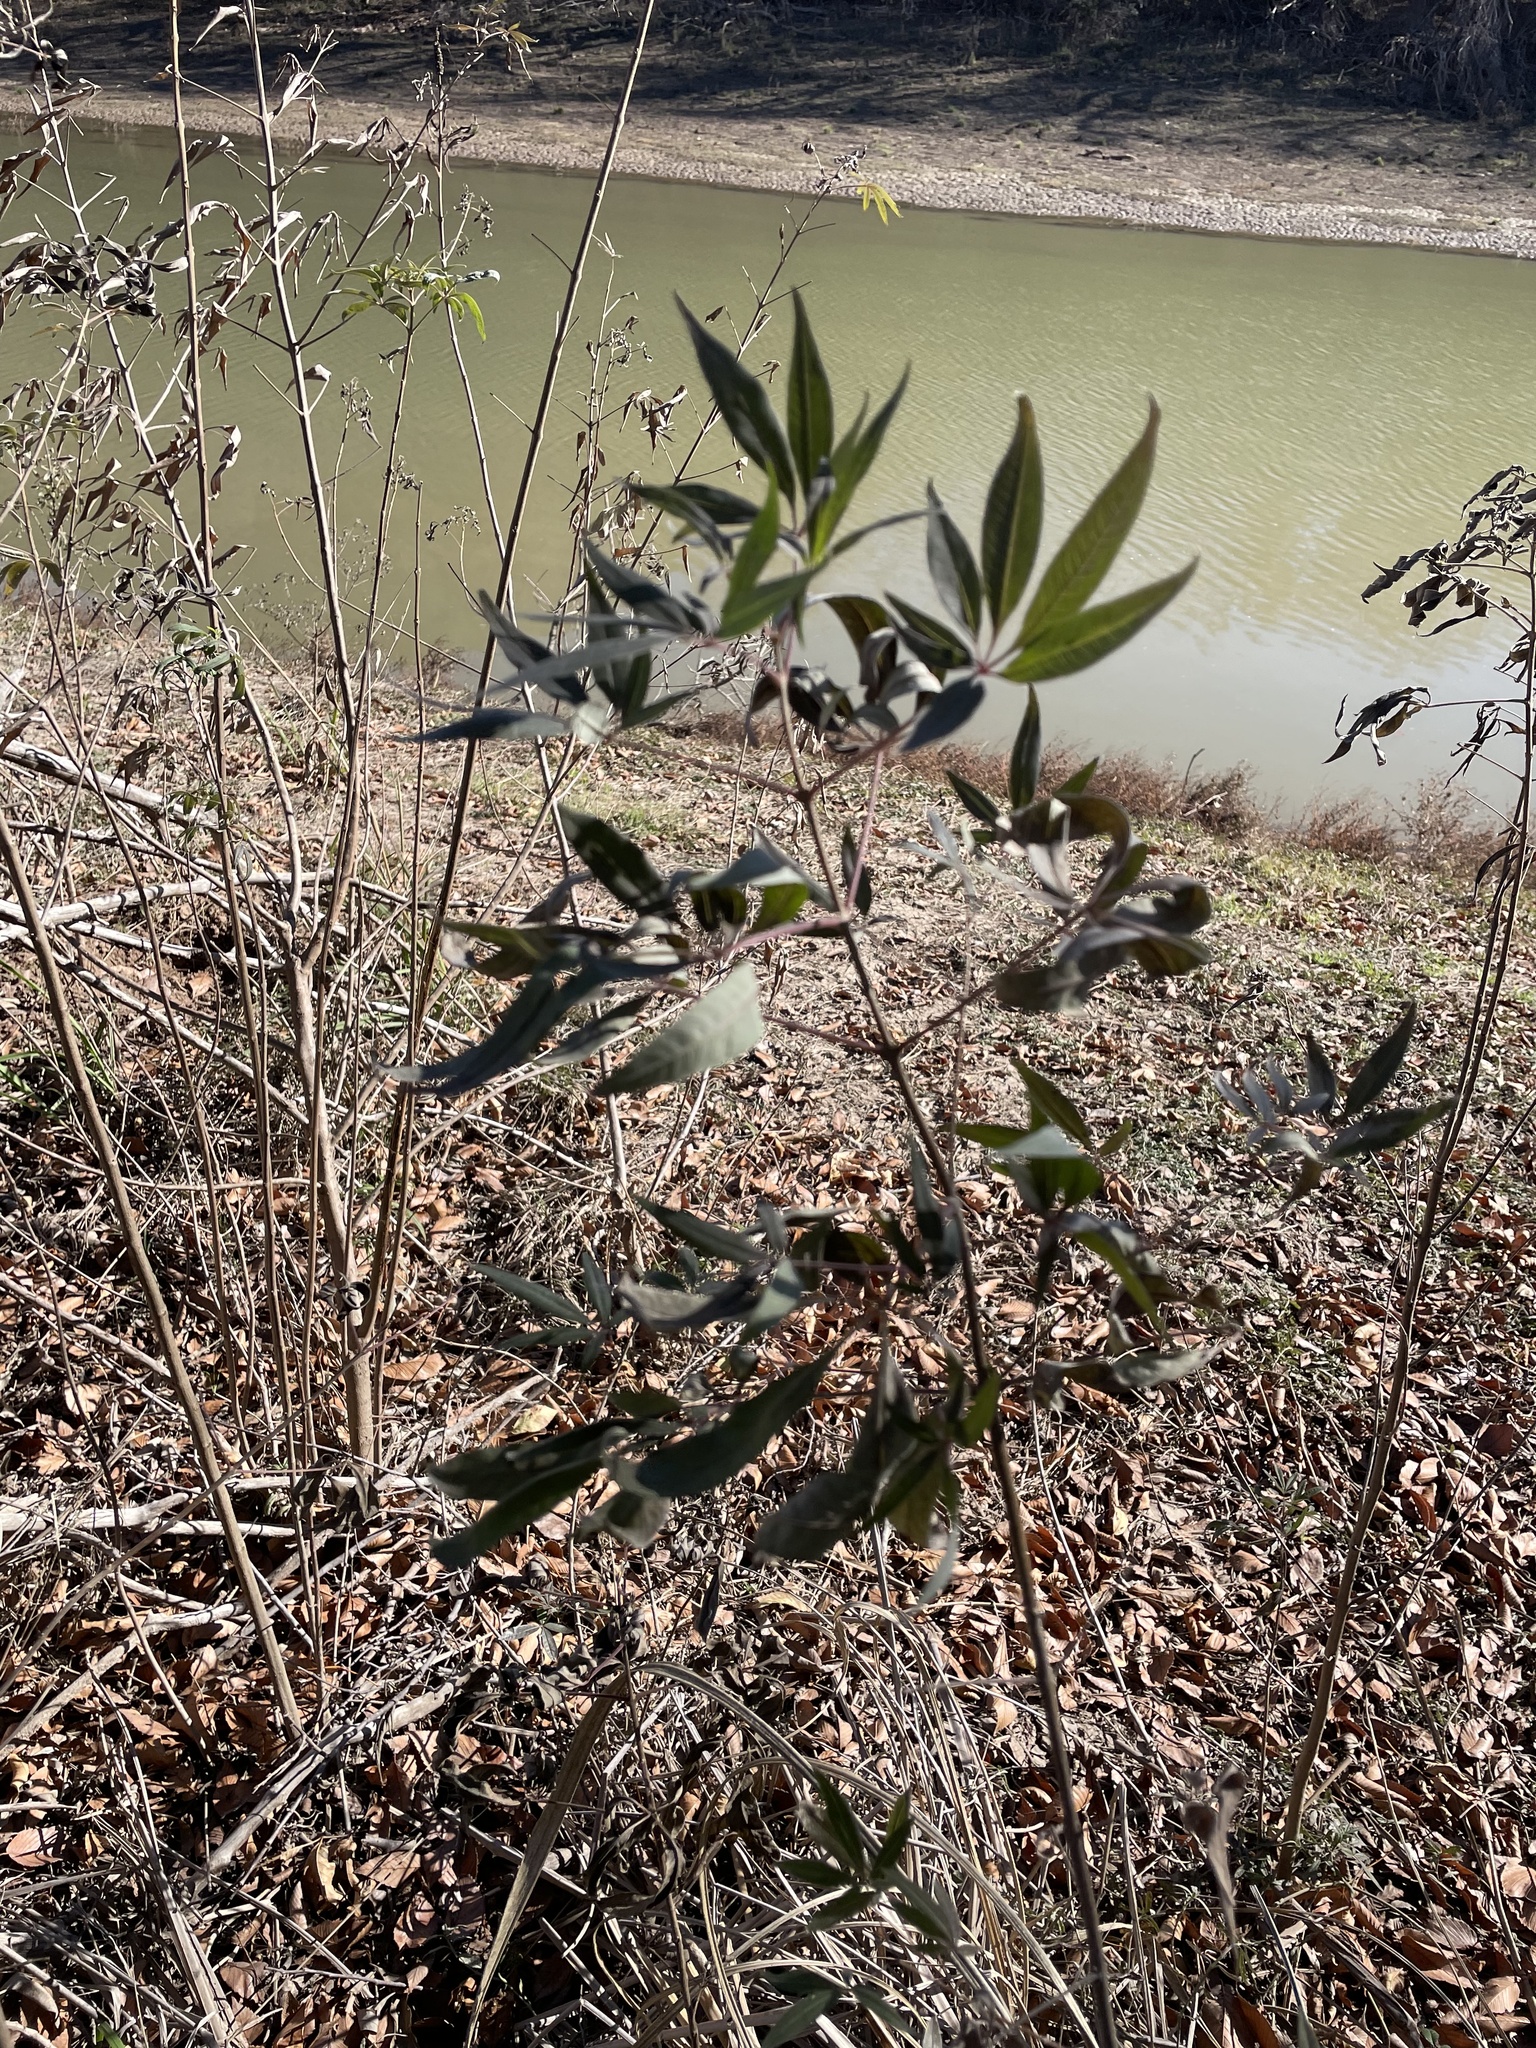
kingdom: Plantae
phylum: Tracheophyta
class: Magnoliopsida
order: Lamiales
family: Lamiaceae
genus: Vitex
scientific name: Vitex agnus-castus
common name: Chasteberry
